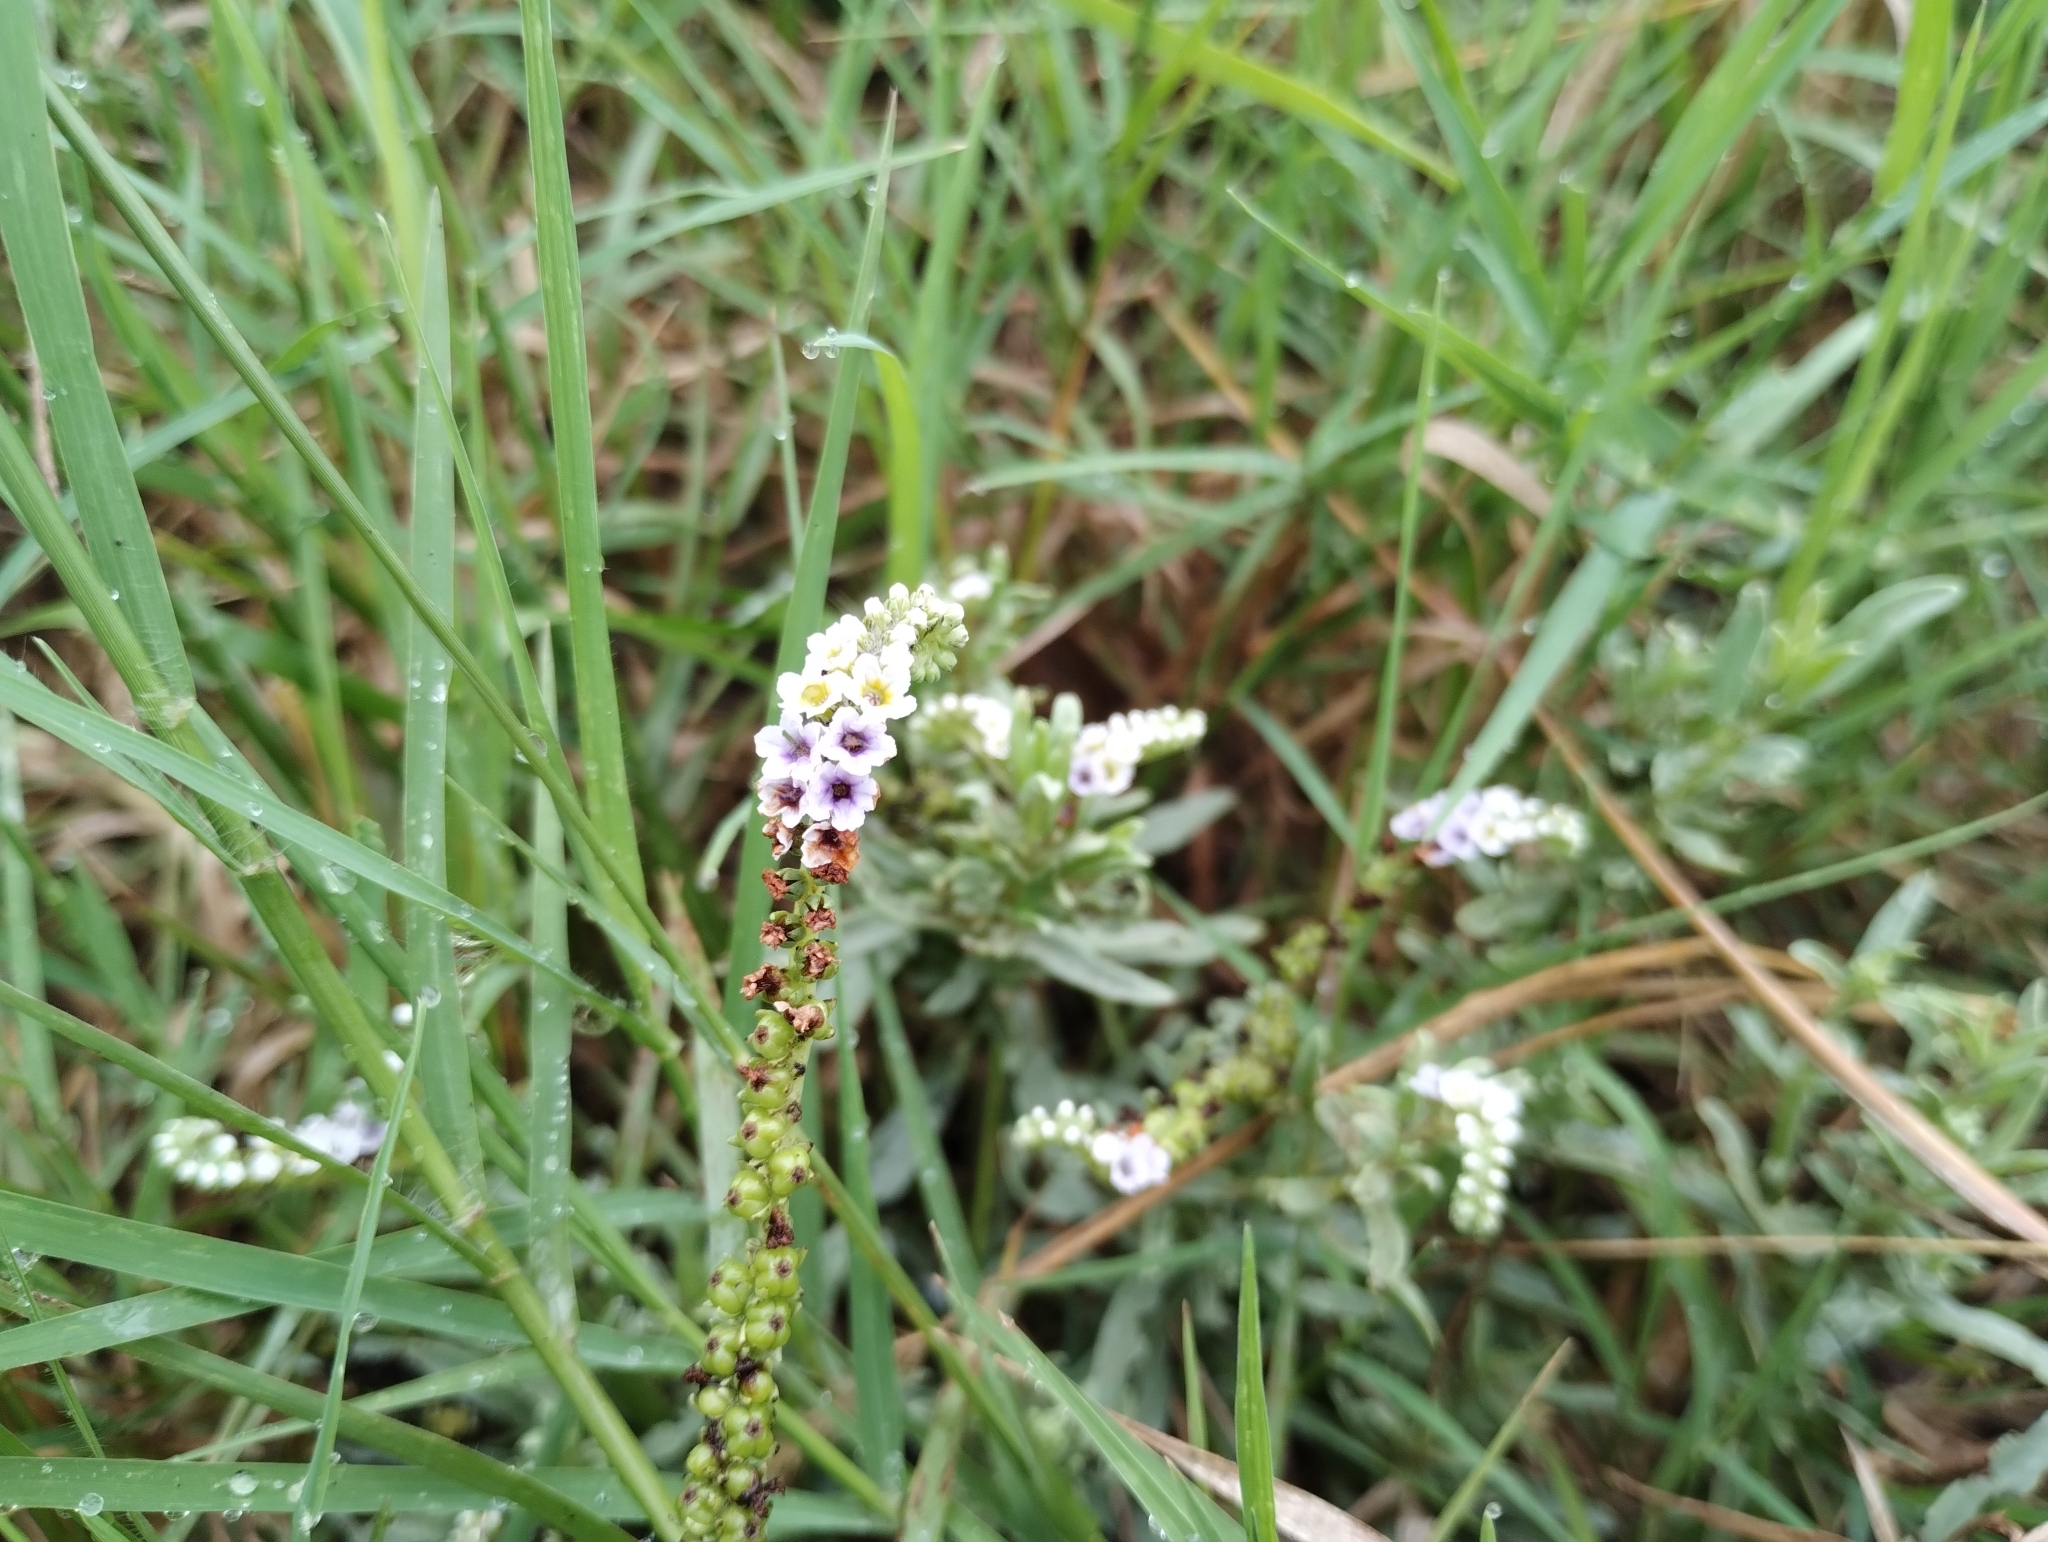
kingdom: Plantae
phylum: Tracheophyta
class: Magnoliopsida
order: Boraginales
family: Heliotropiaceae
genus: Heliotropium
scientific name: Heliotropium curassavicum
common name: Seaside heliotrope
